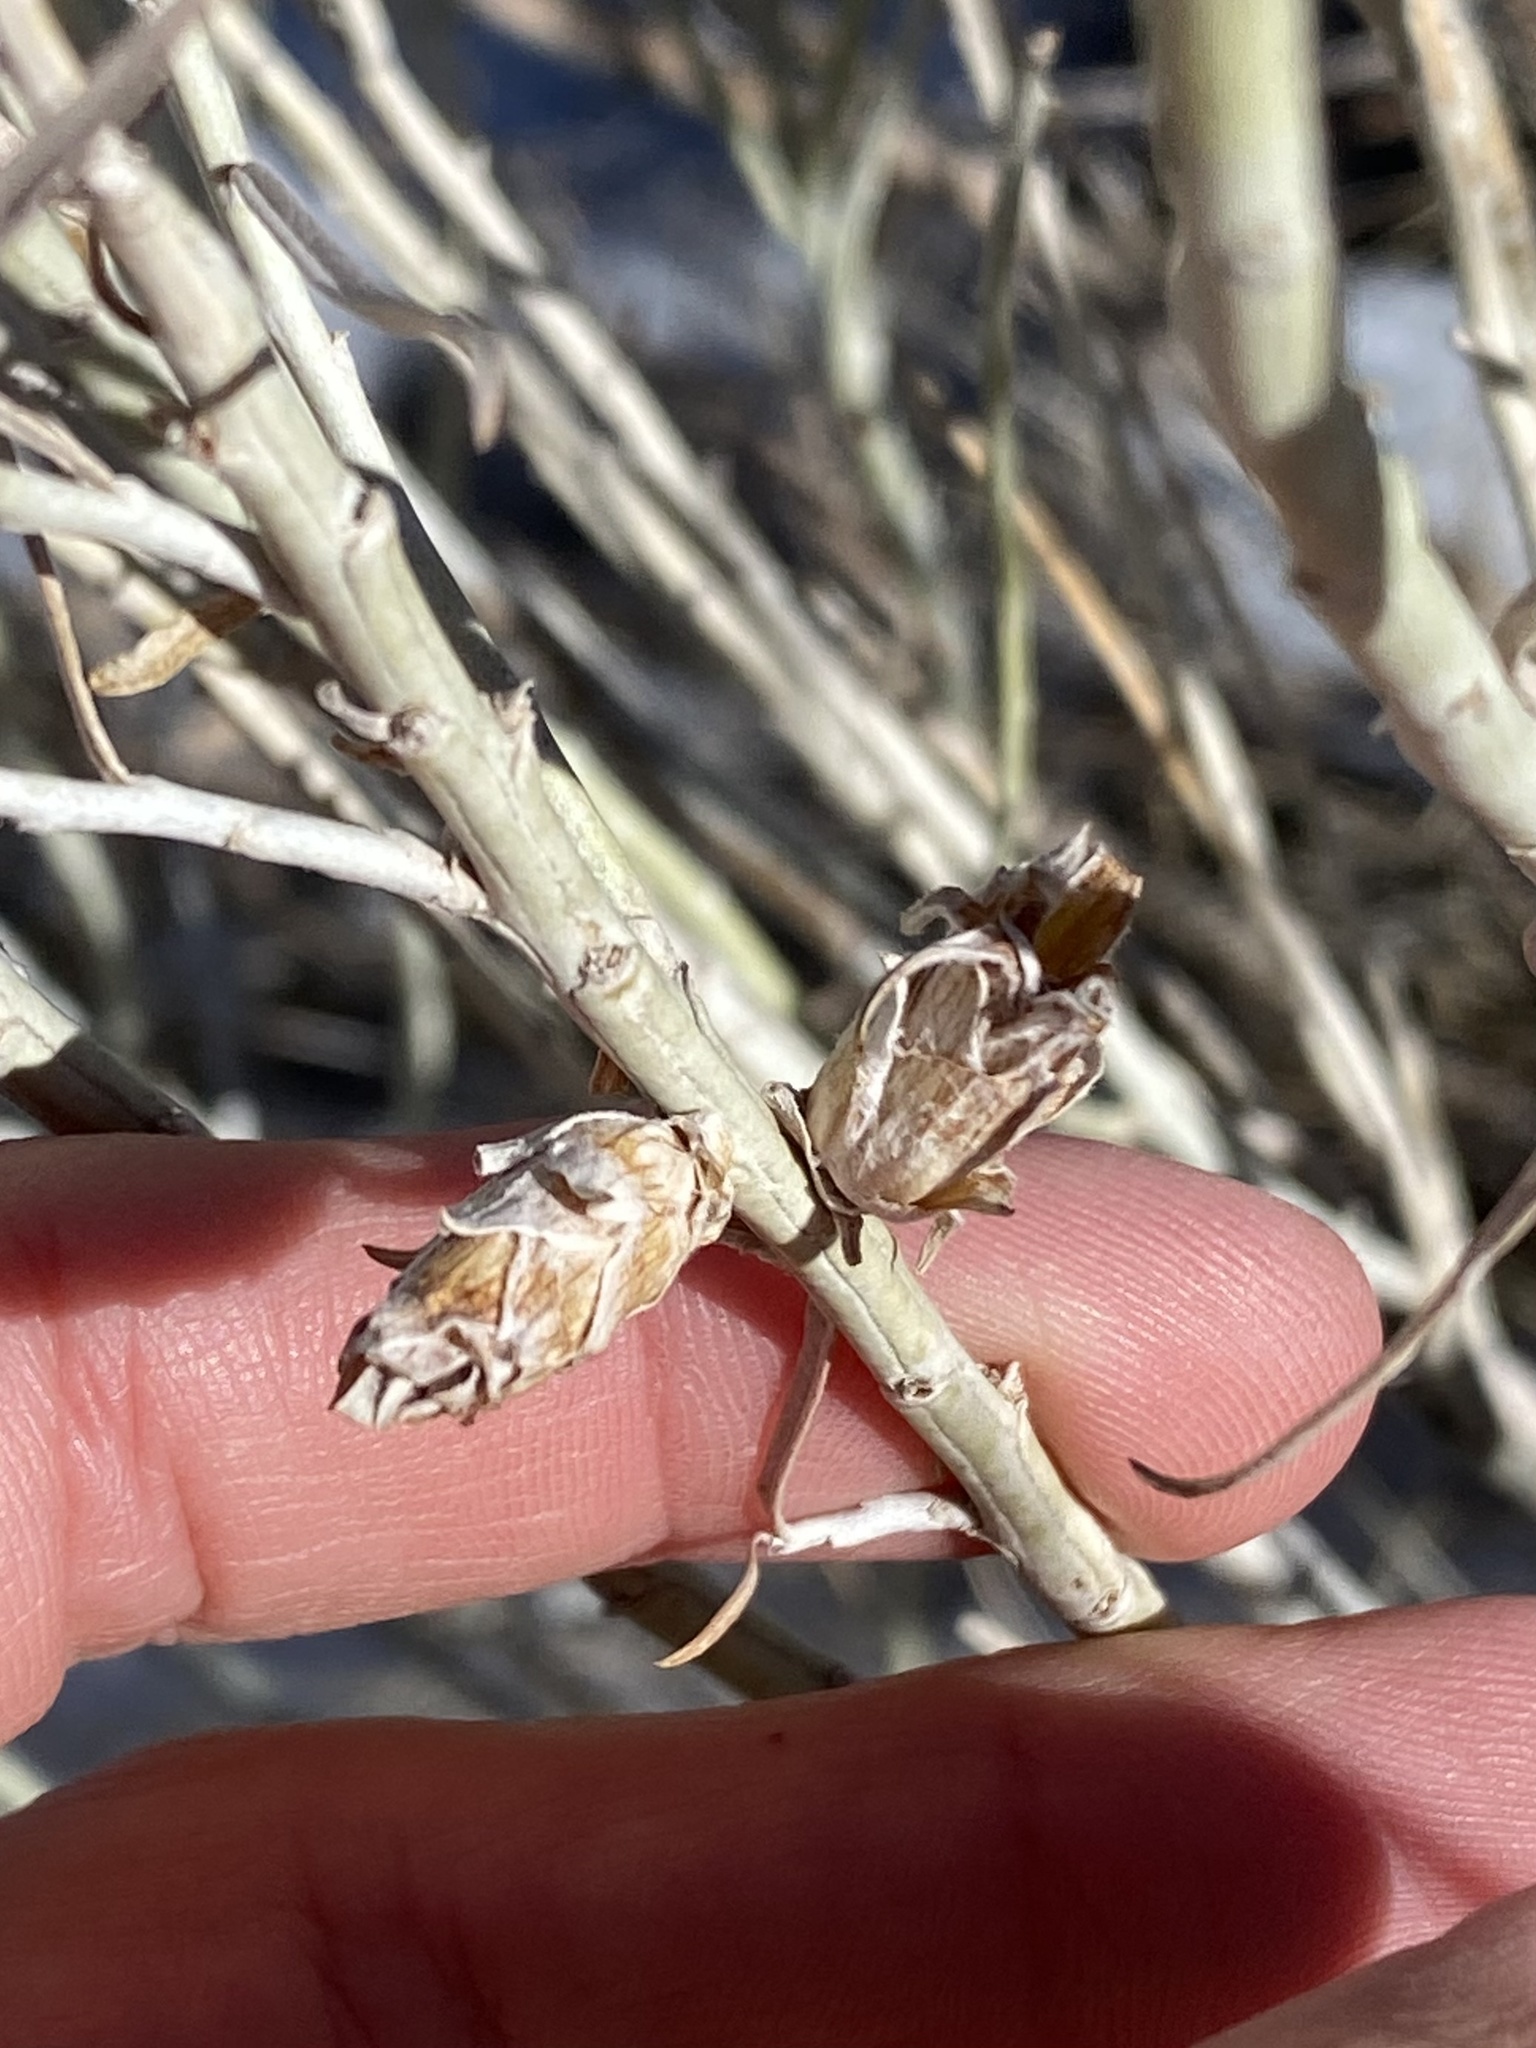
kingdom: Animalia
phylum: Arthropoda
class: Insecta
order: Diptera
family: Cecidomyiidae
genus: Rhopalomyia
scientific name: Rhopalomyia ericameriae
